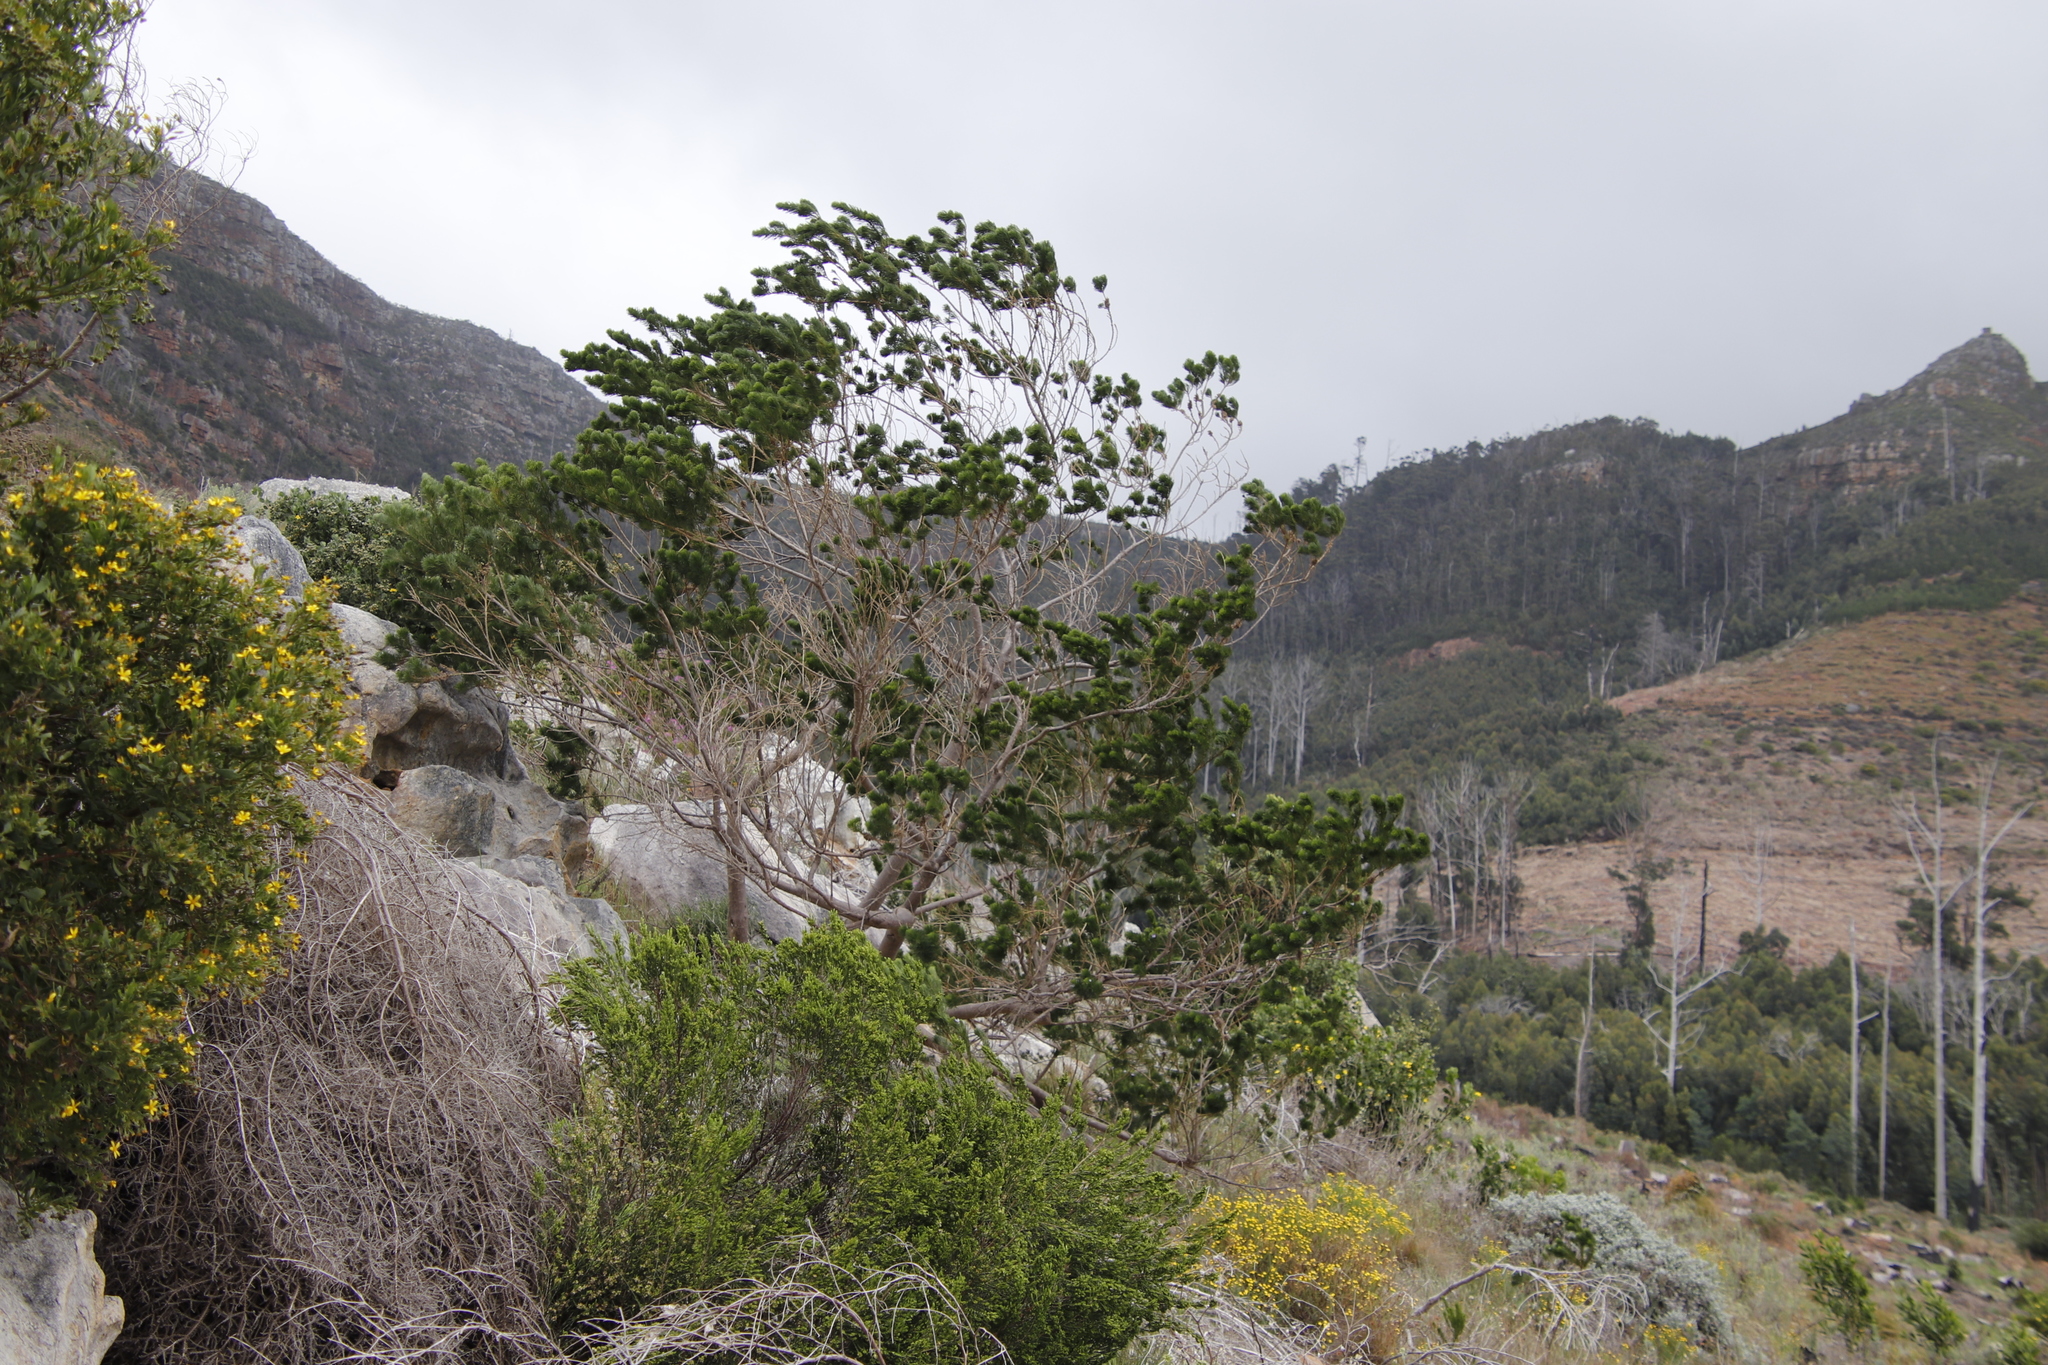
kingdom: Plantae
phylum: Tracheophyta
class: Magnoliopsida
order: Fabales
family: Fabaceae
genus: Psoralea
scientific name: Psoralea pinnata
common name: African scurfpea
